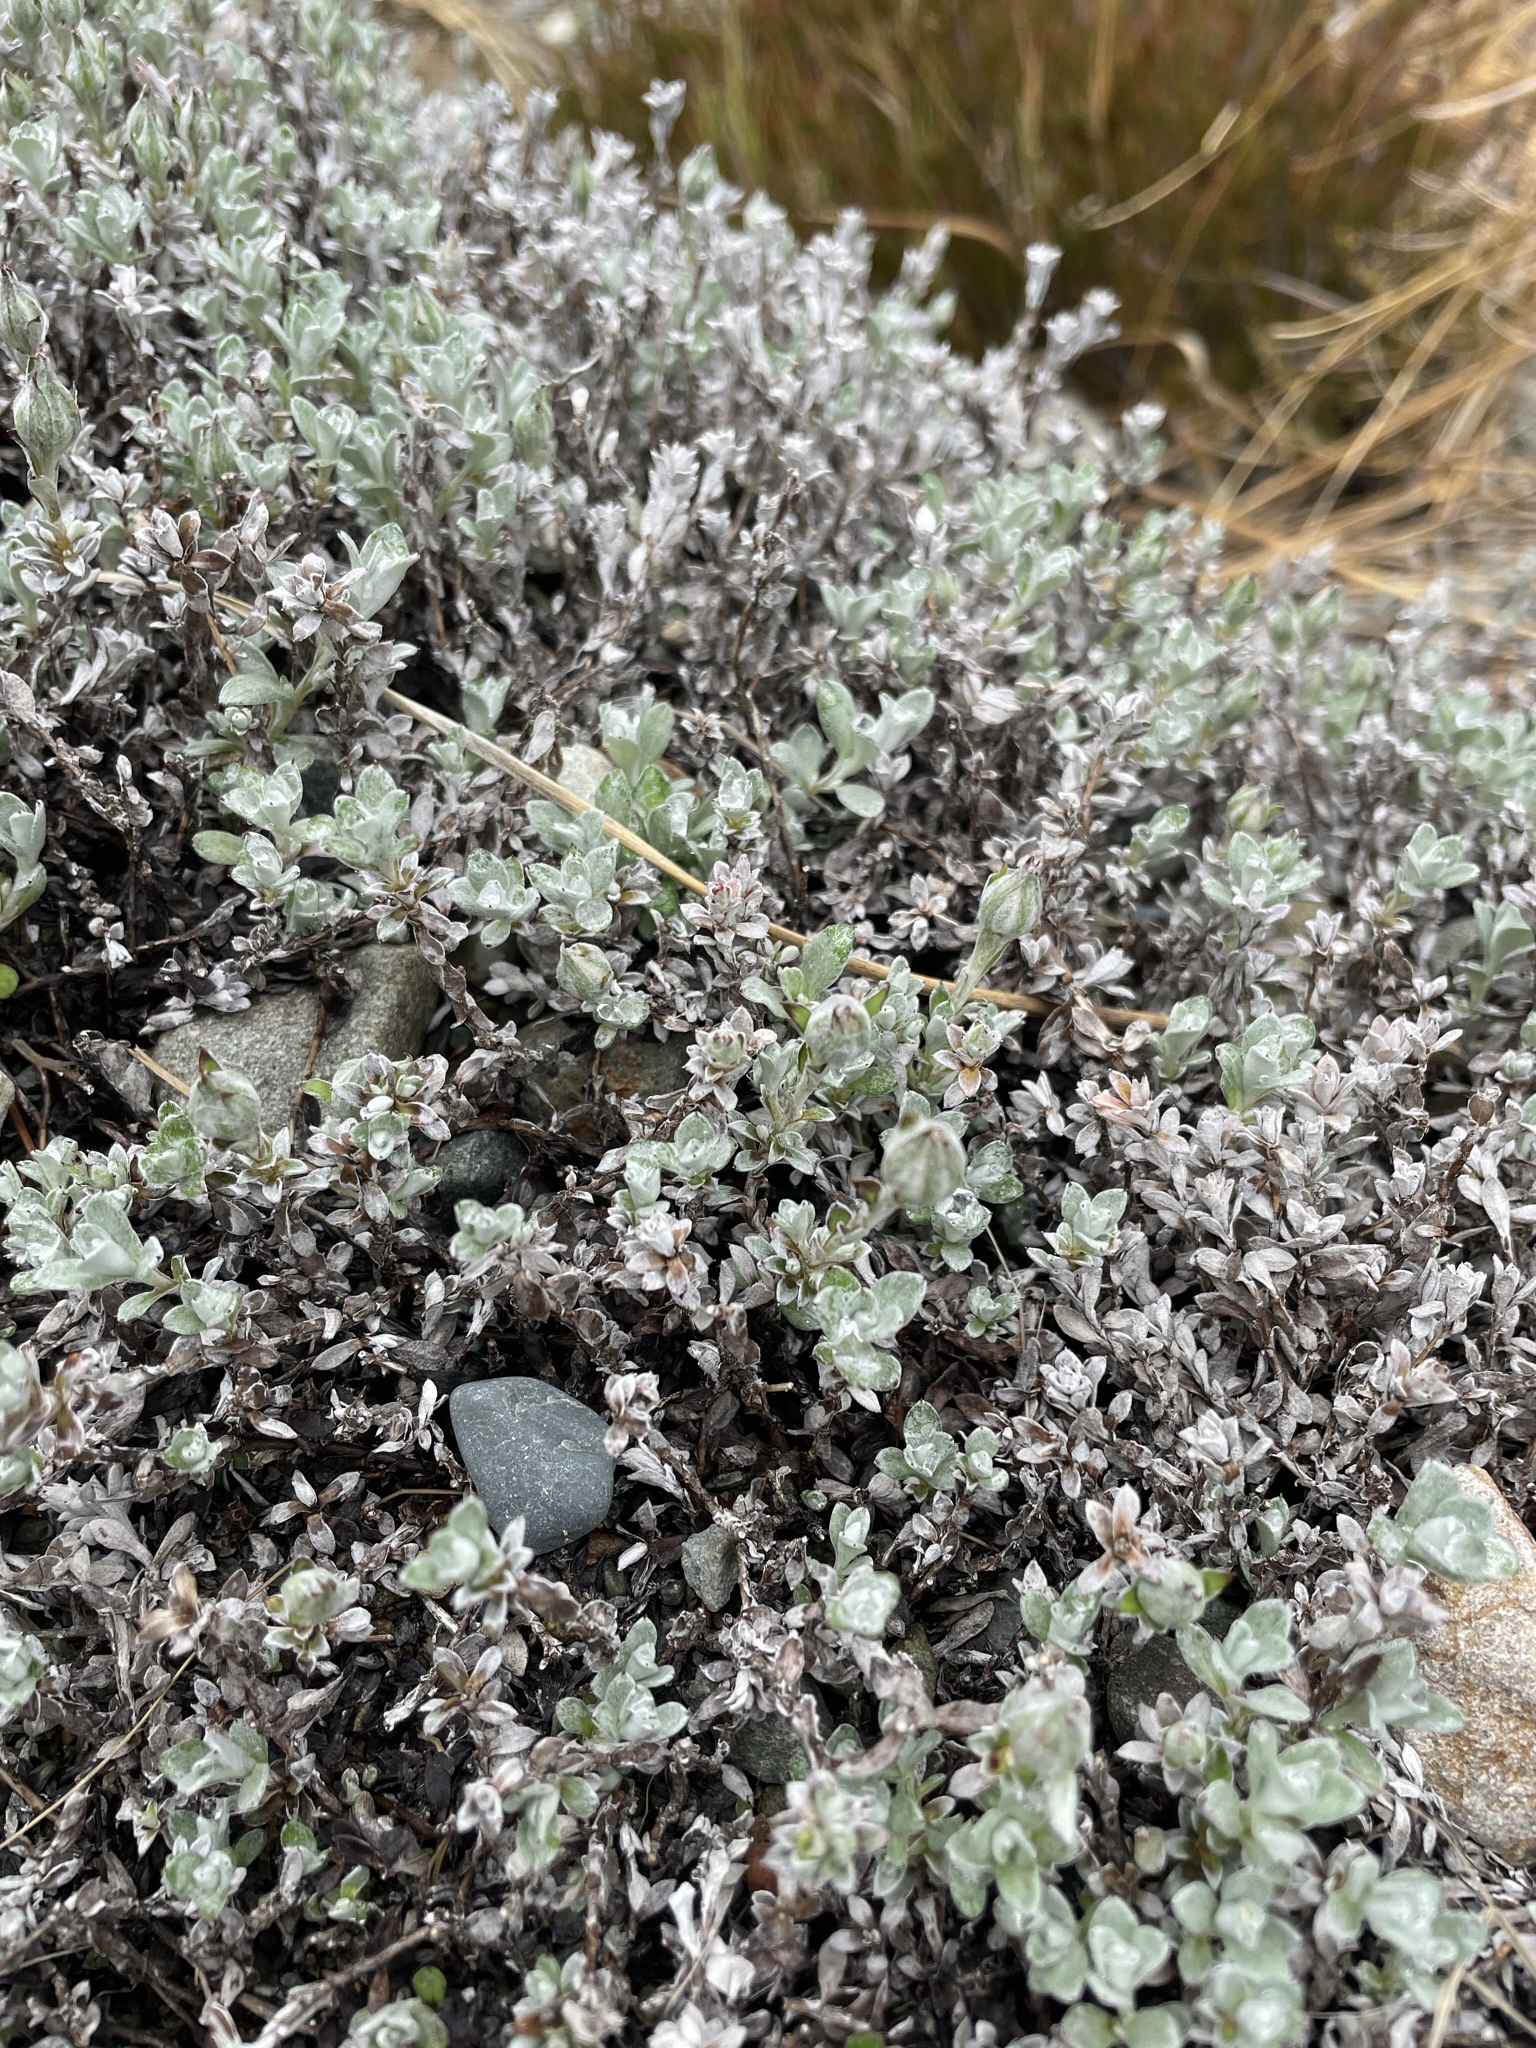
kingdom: Plantae
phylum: Tracheophyta
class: Magnoliopsida
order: Asterales
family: Asteraceae
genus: Anaphalioides
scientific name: Anaphalioides bellidioides
